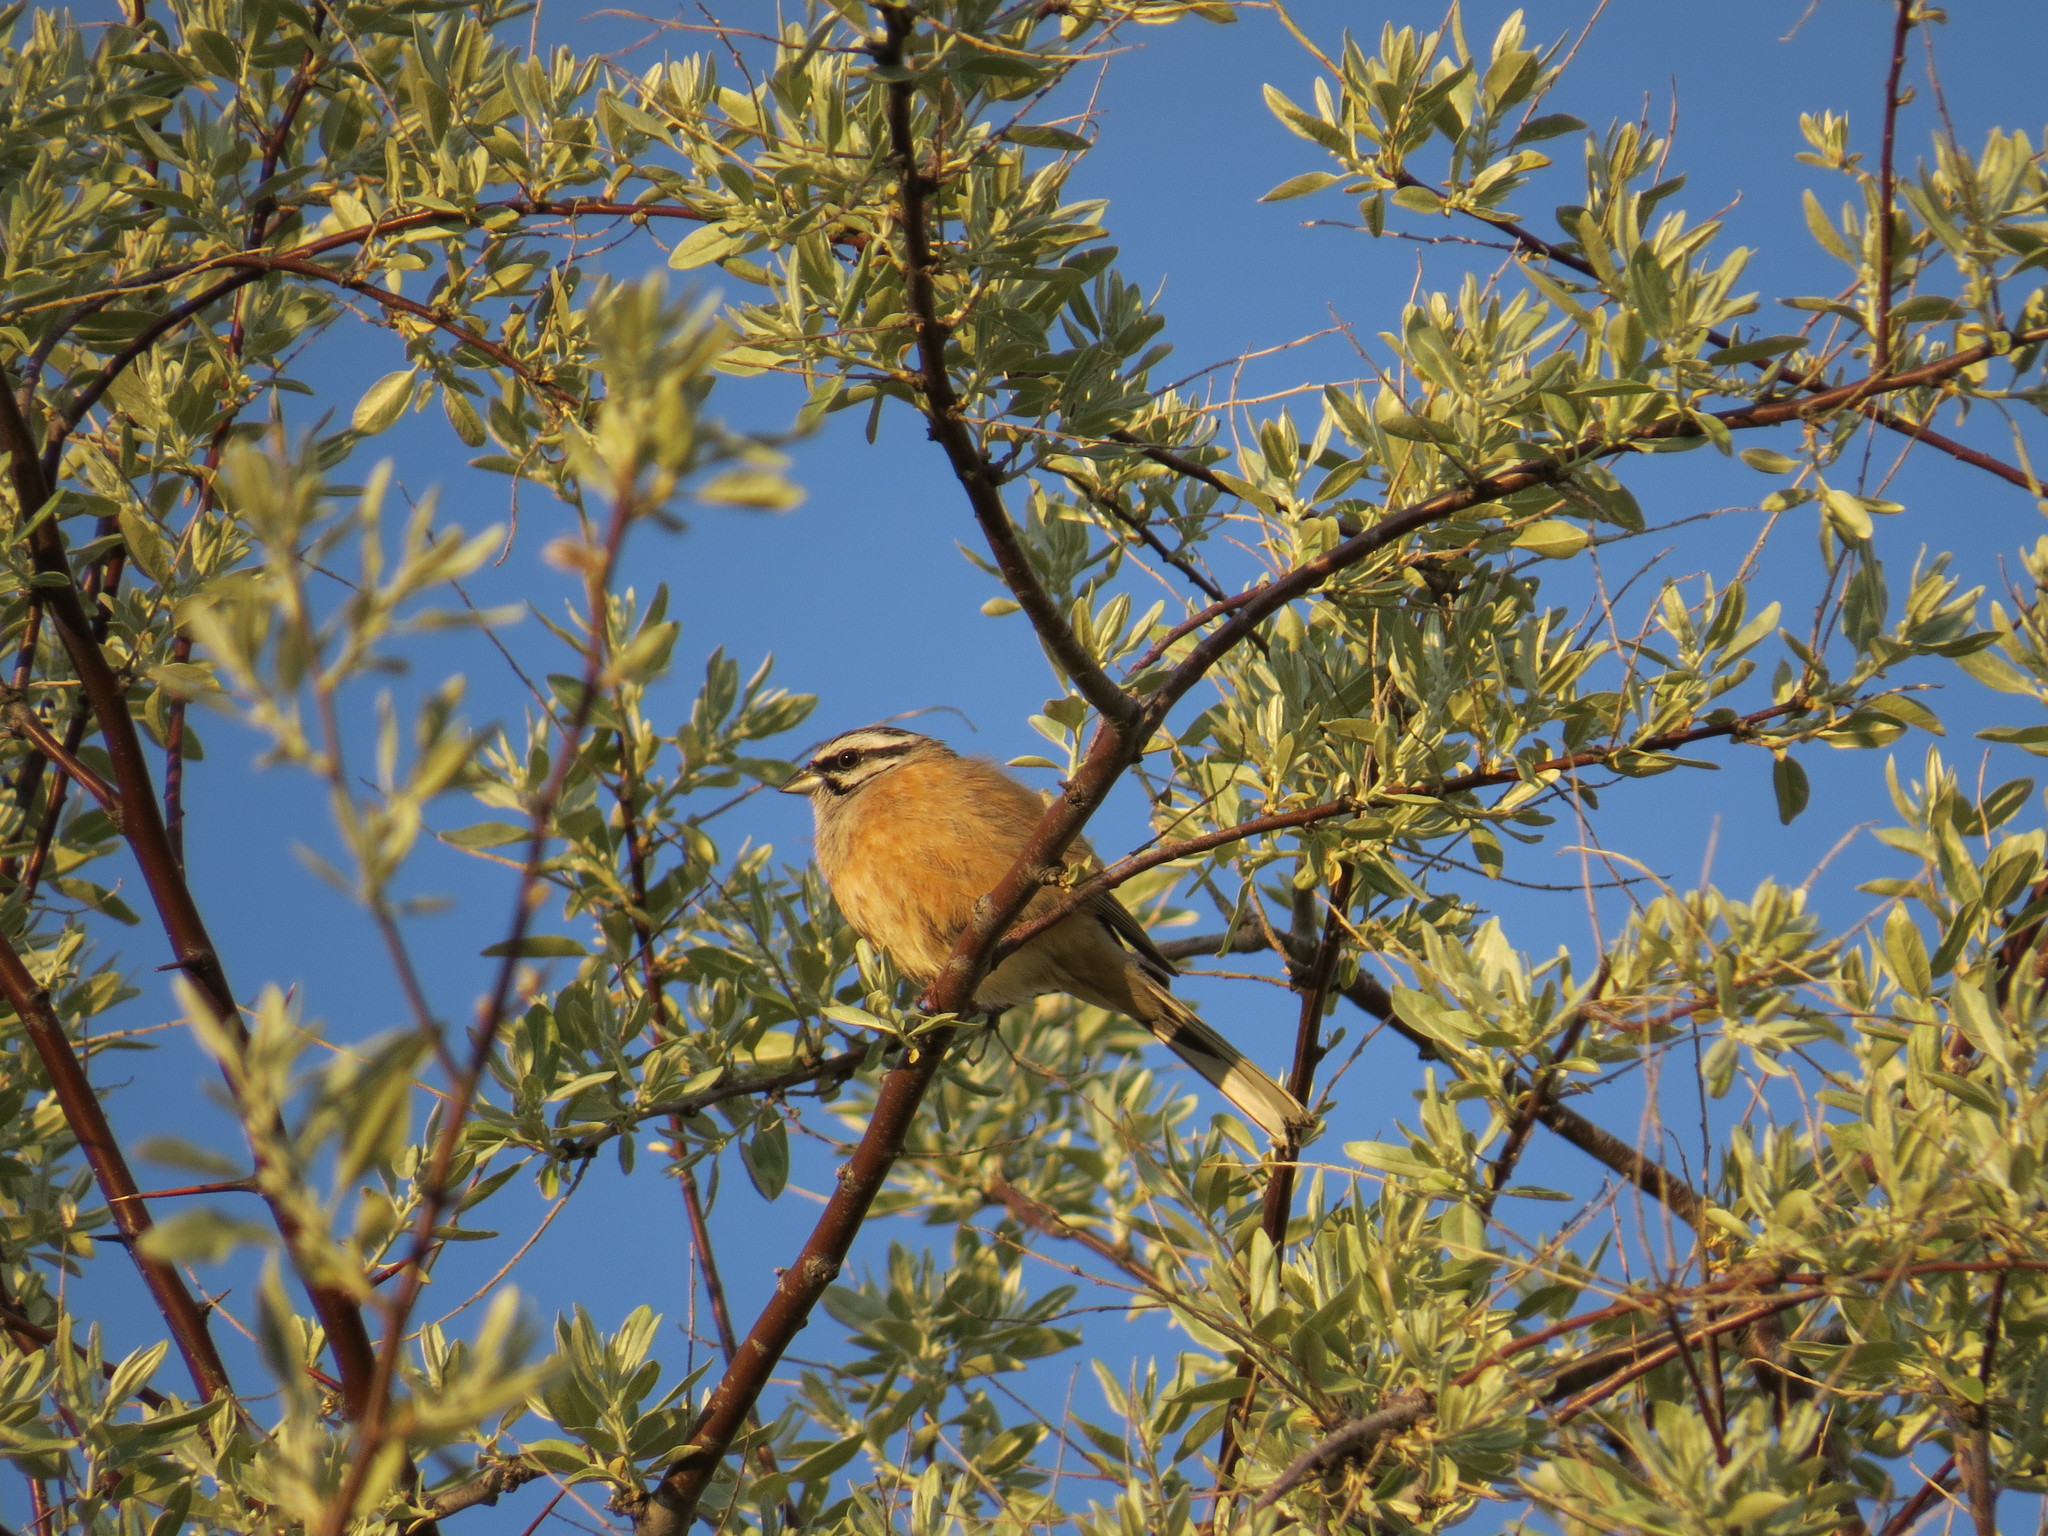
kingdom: Animalia
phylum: Chordata
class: Aves
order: Passeriformes
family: Emberizidae
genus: Emberiza
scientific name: Emberiza cia
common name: Rock bunting
